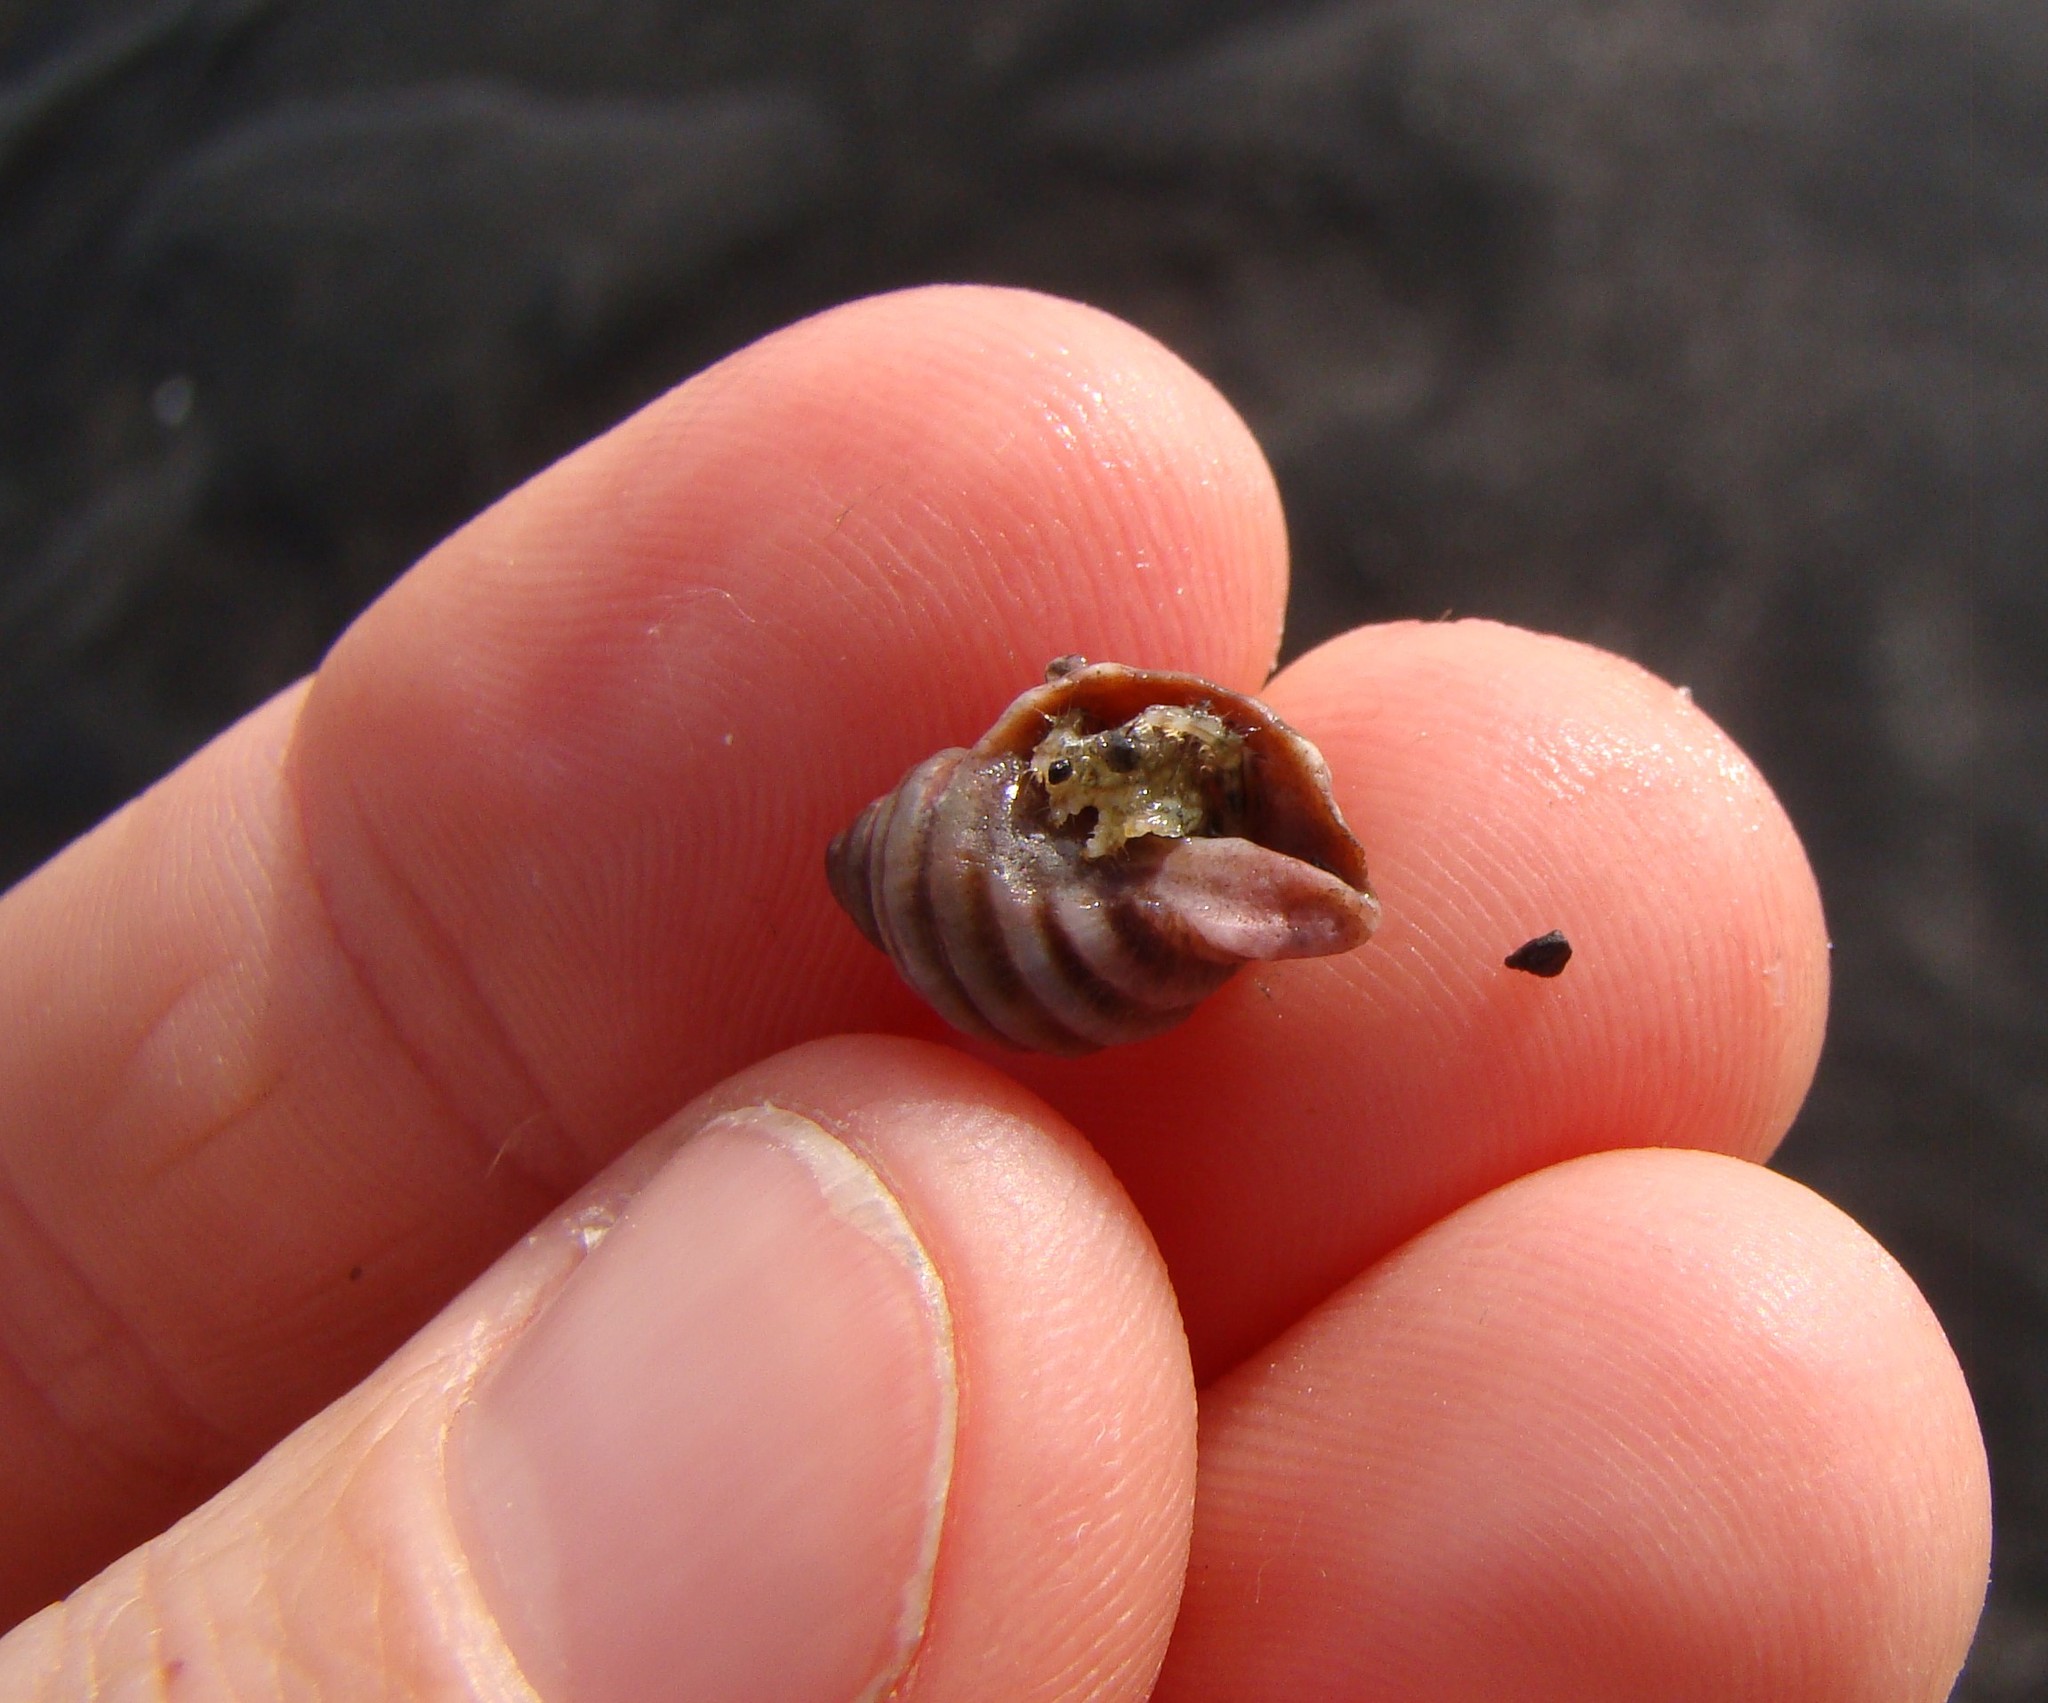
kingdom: Animalia
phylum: Mollusca
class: Gastropoda
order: Neogastropoda
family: Muricidae
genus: Paratrophon
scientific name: Paratrophon cheesemani
